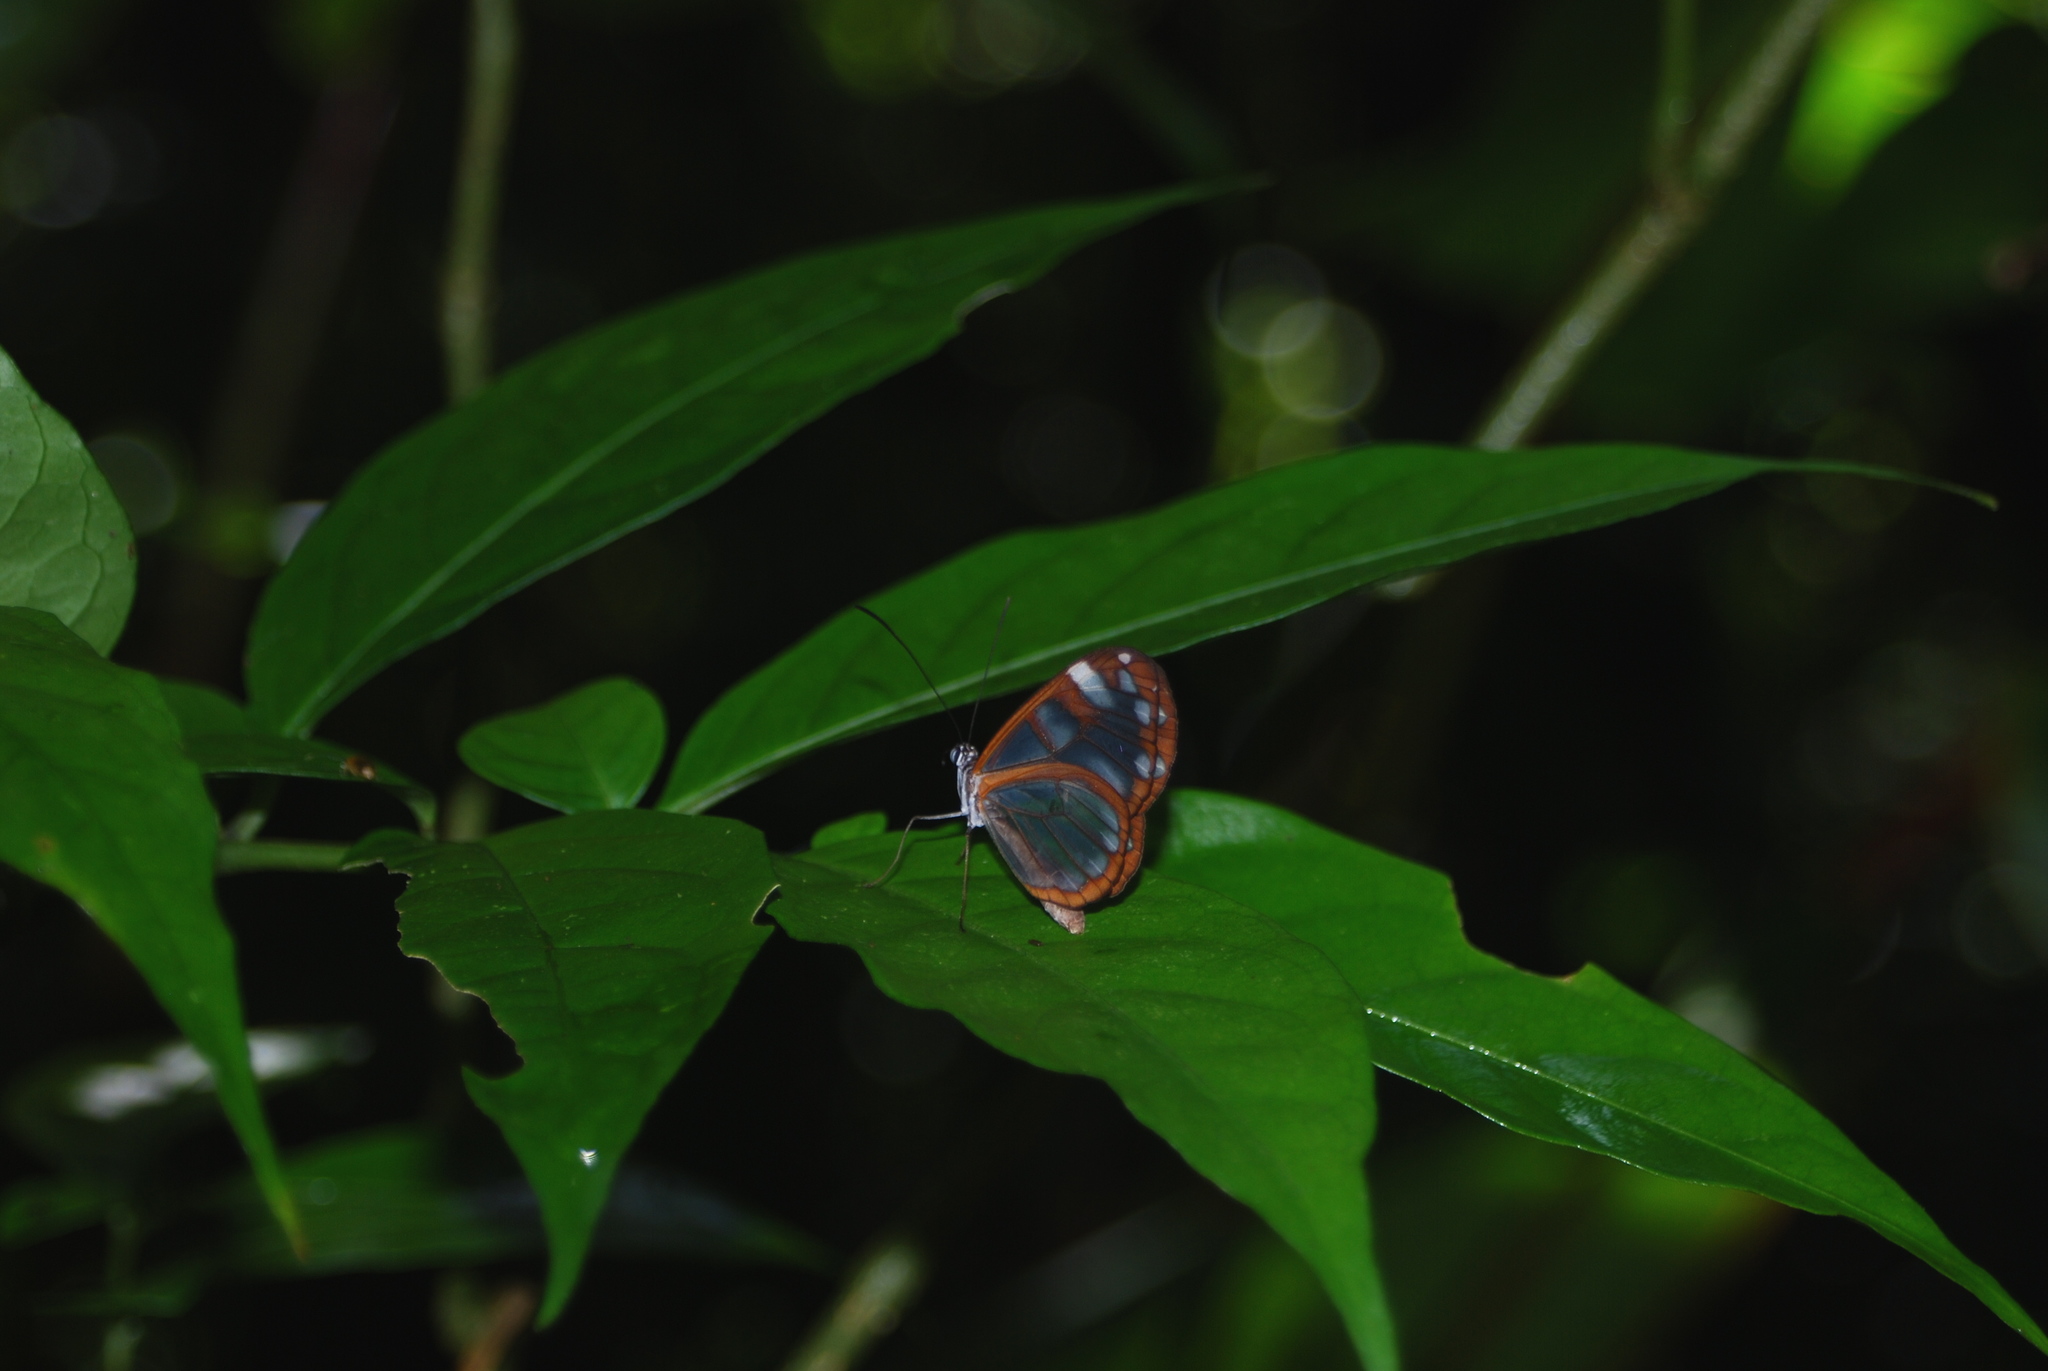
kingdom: Animalia
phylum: Arthropoda
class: Insecta
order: Lepidoptera
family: Nymphalidae
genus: Oleria
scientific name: Oleria vicina
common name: Vicina clearwing
